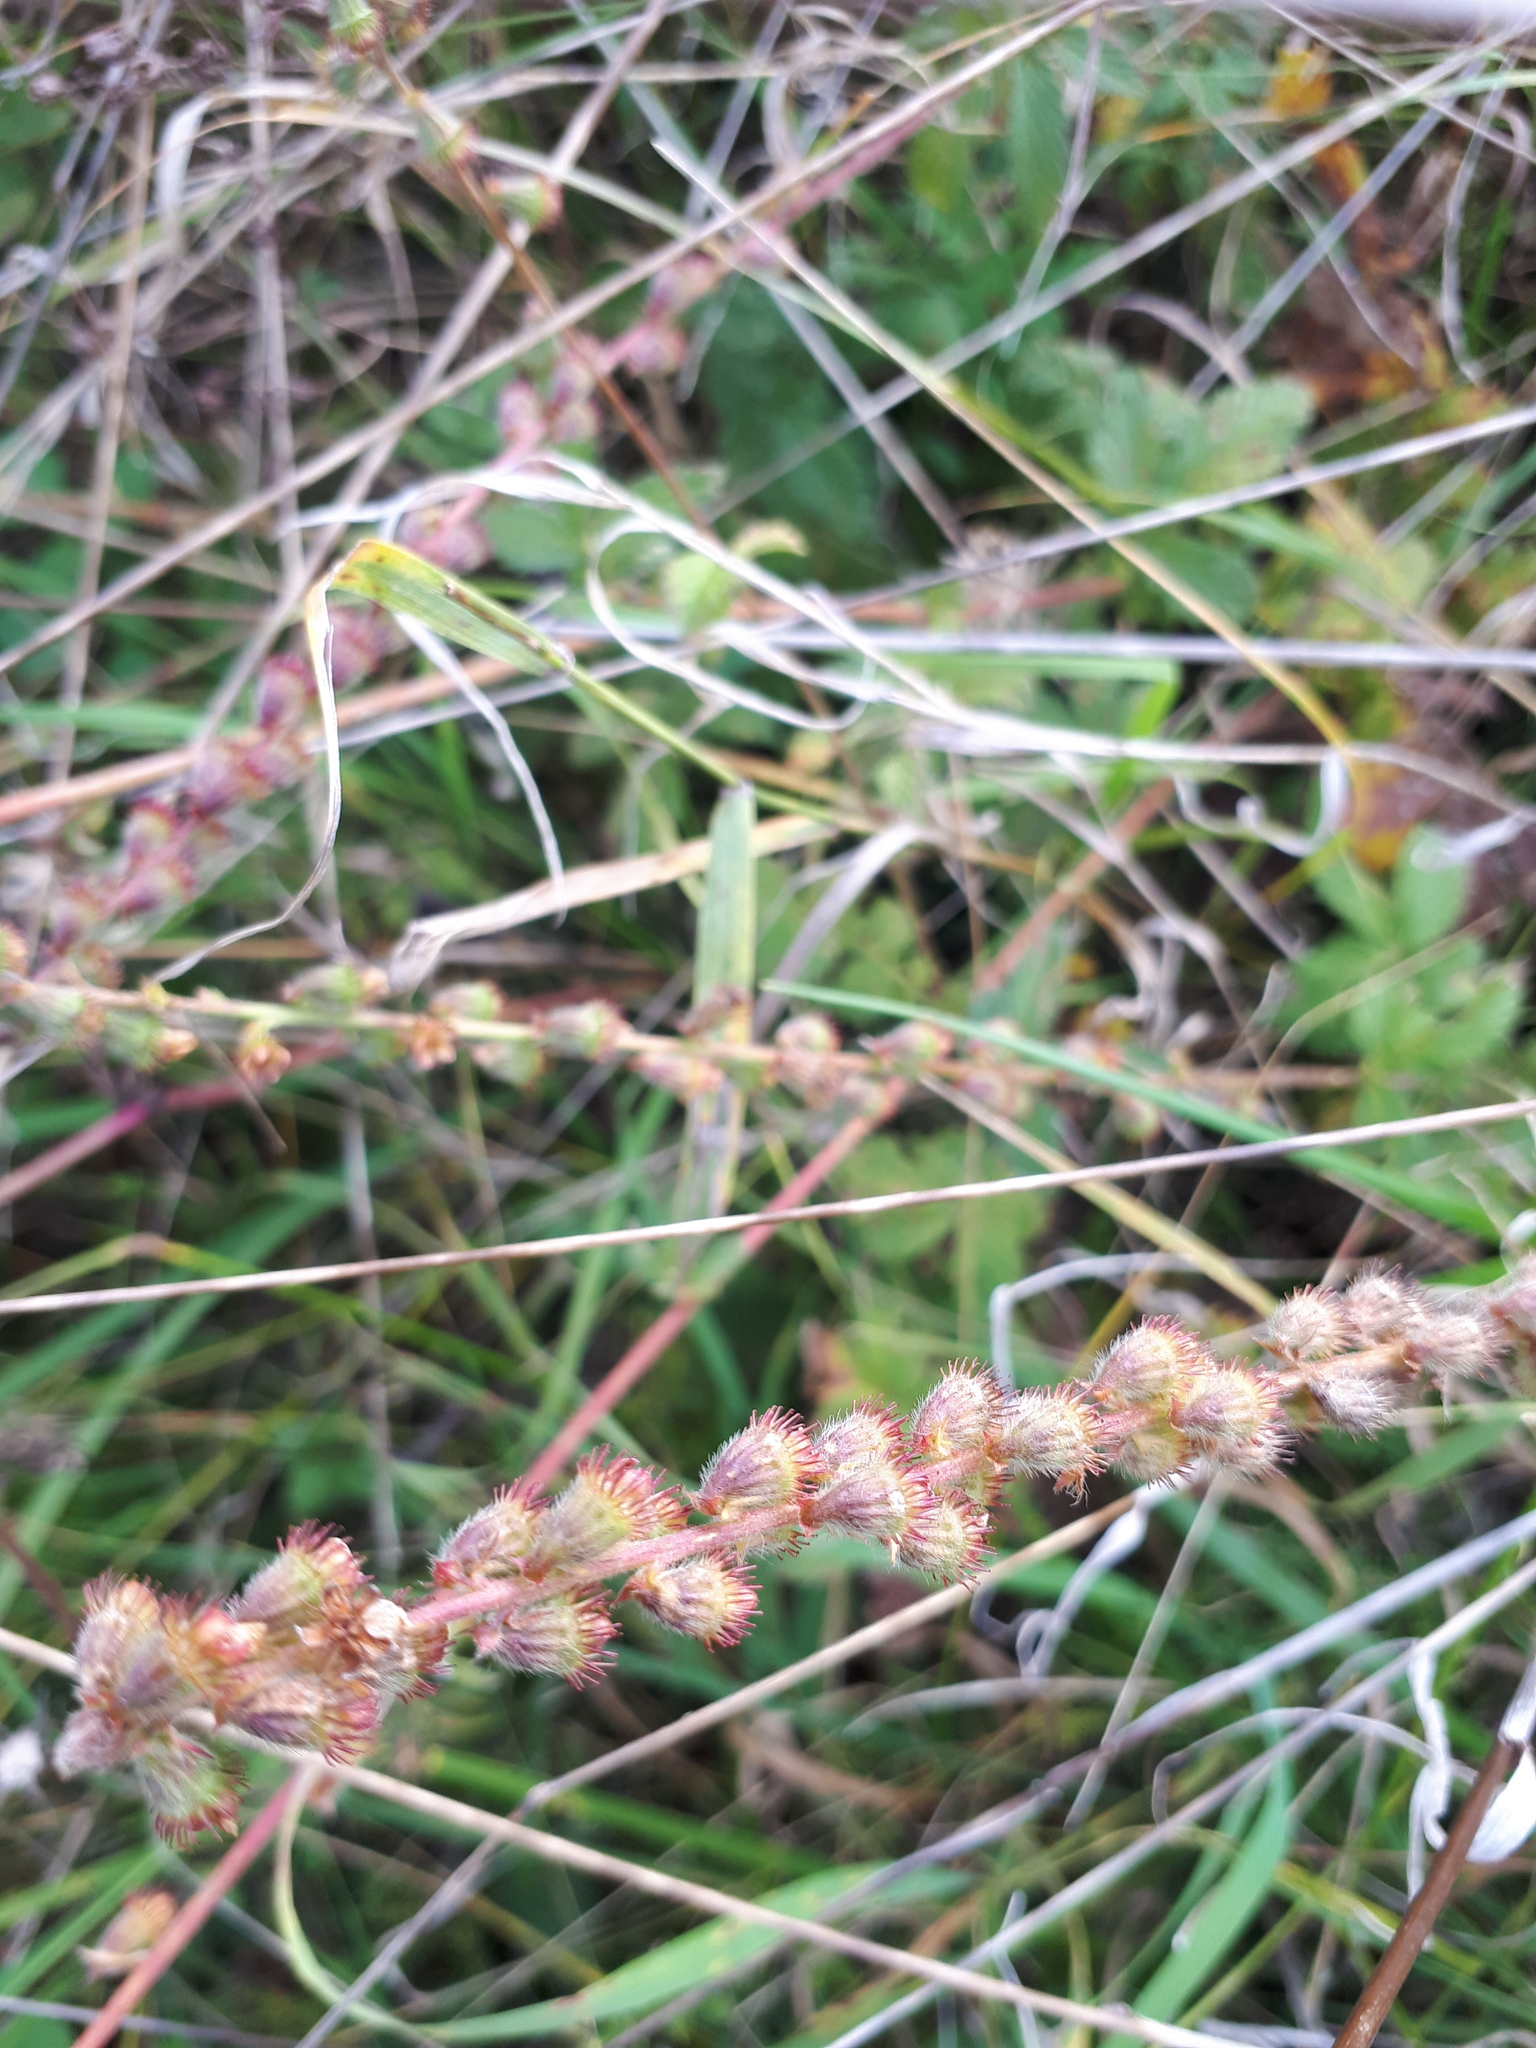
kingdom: Plantae
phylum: Tracheophyta
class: Magnoliopsida
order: Rosales
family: Rosaceae
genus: Agrimonia
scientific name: Agrimonia eupatoria
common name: Agrimony
